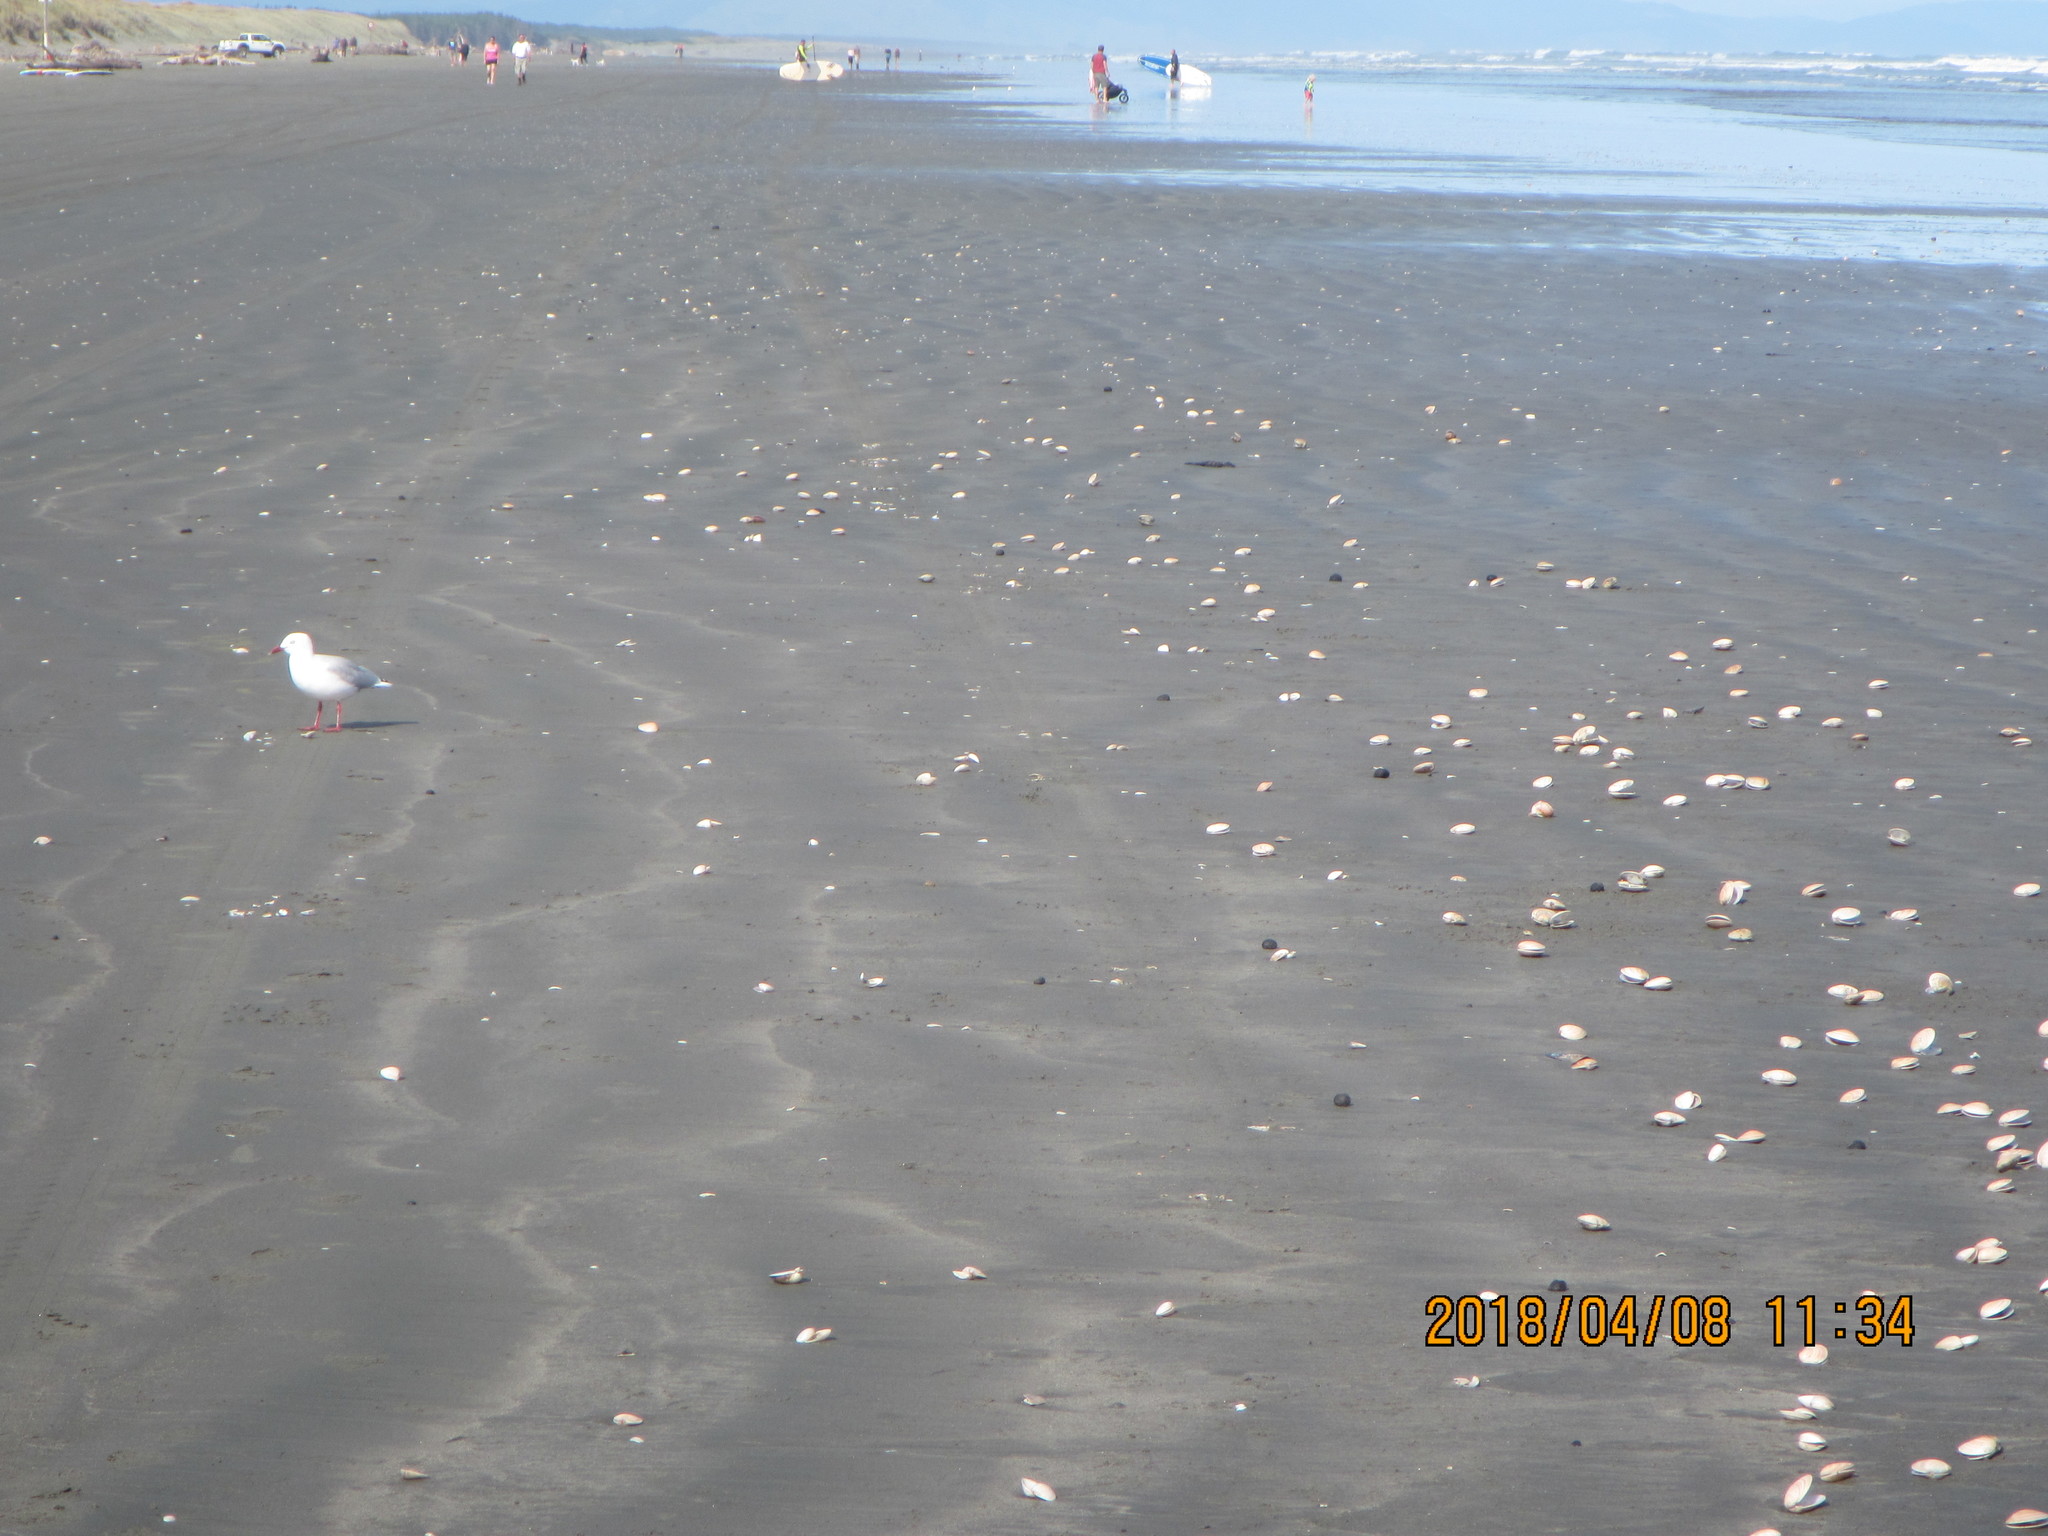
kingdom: Animalia
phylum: Mollusca
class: Bivalvia
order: Venerida
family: Veneridae
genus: Dosinia
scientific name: Dosinia anus
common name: Old-woman dosinia
